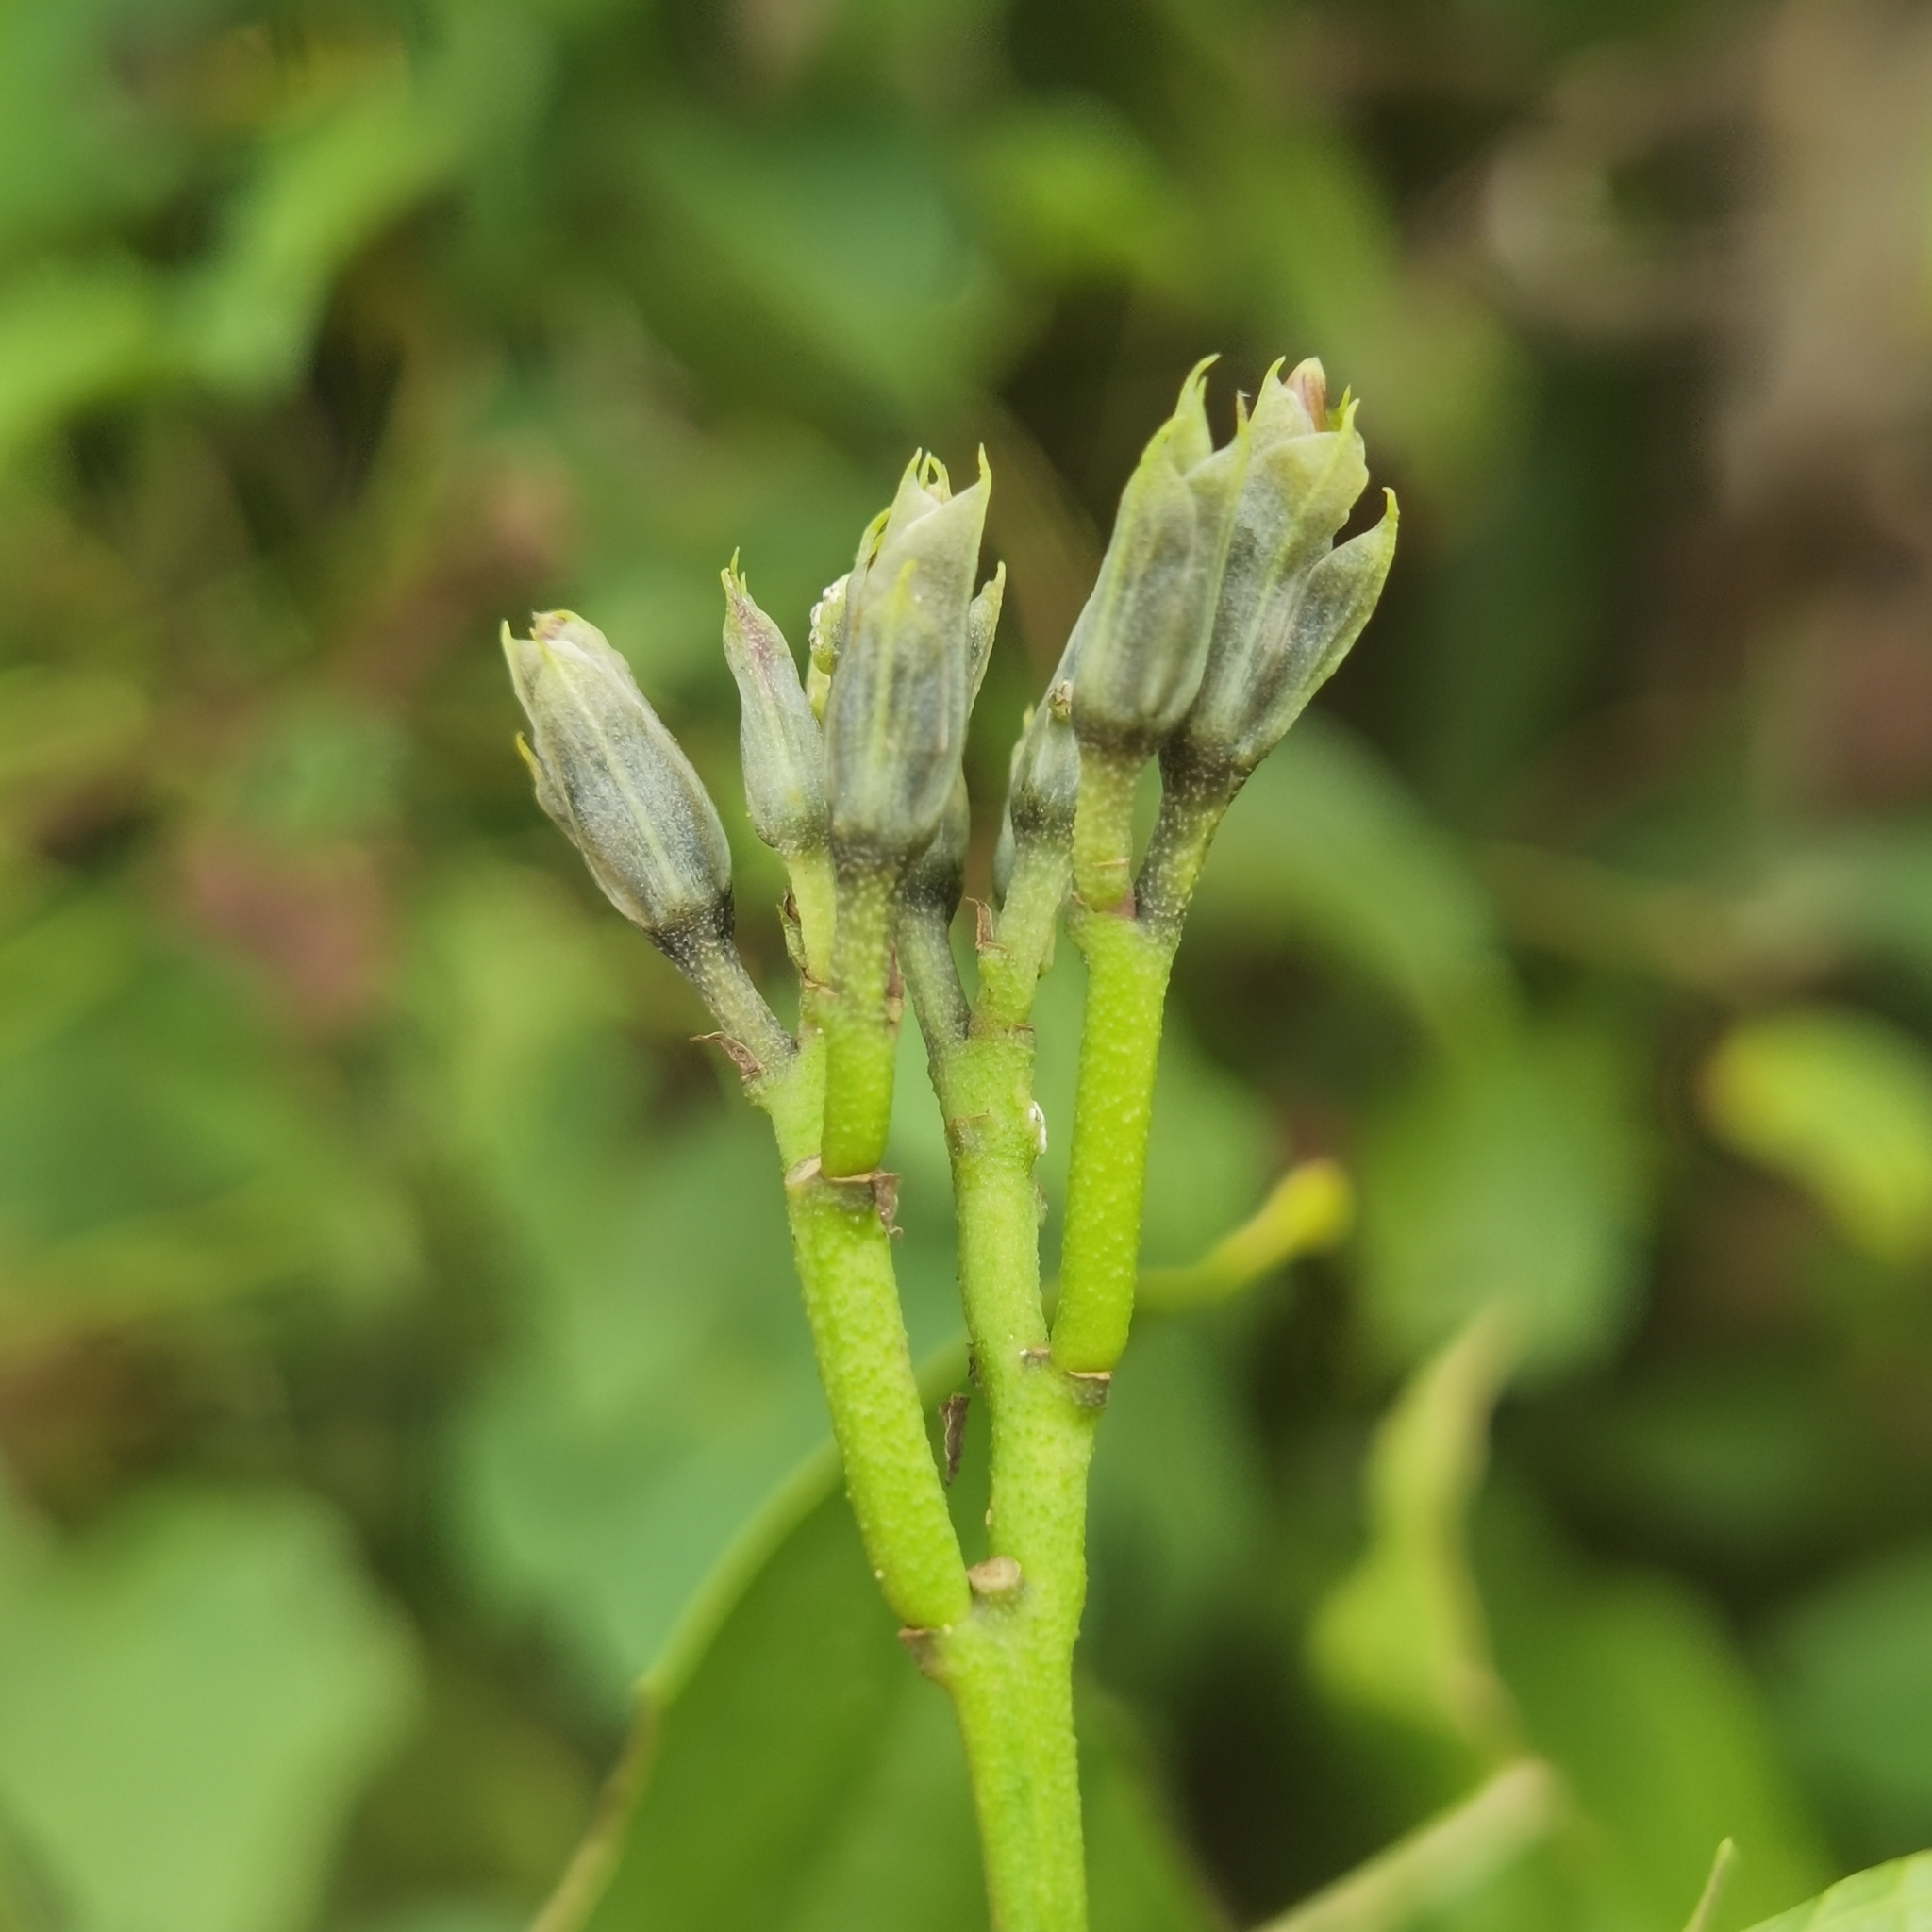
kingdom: Plantae
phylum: Tracheophyta
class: Magnoliopsida
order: Solanales
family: Convolvulaceae
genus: Ipomoea
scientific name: Ipomoea batatas
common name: Sweet-potato
